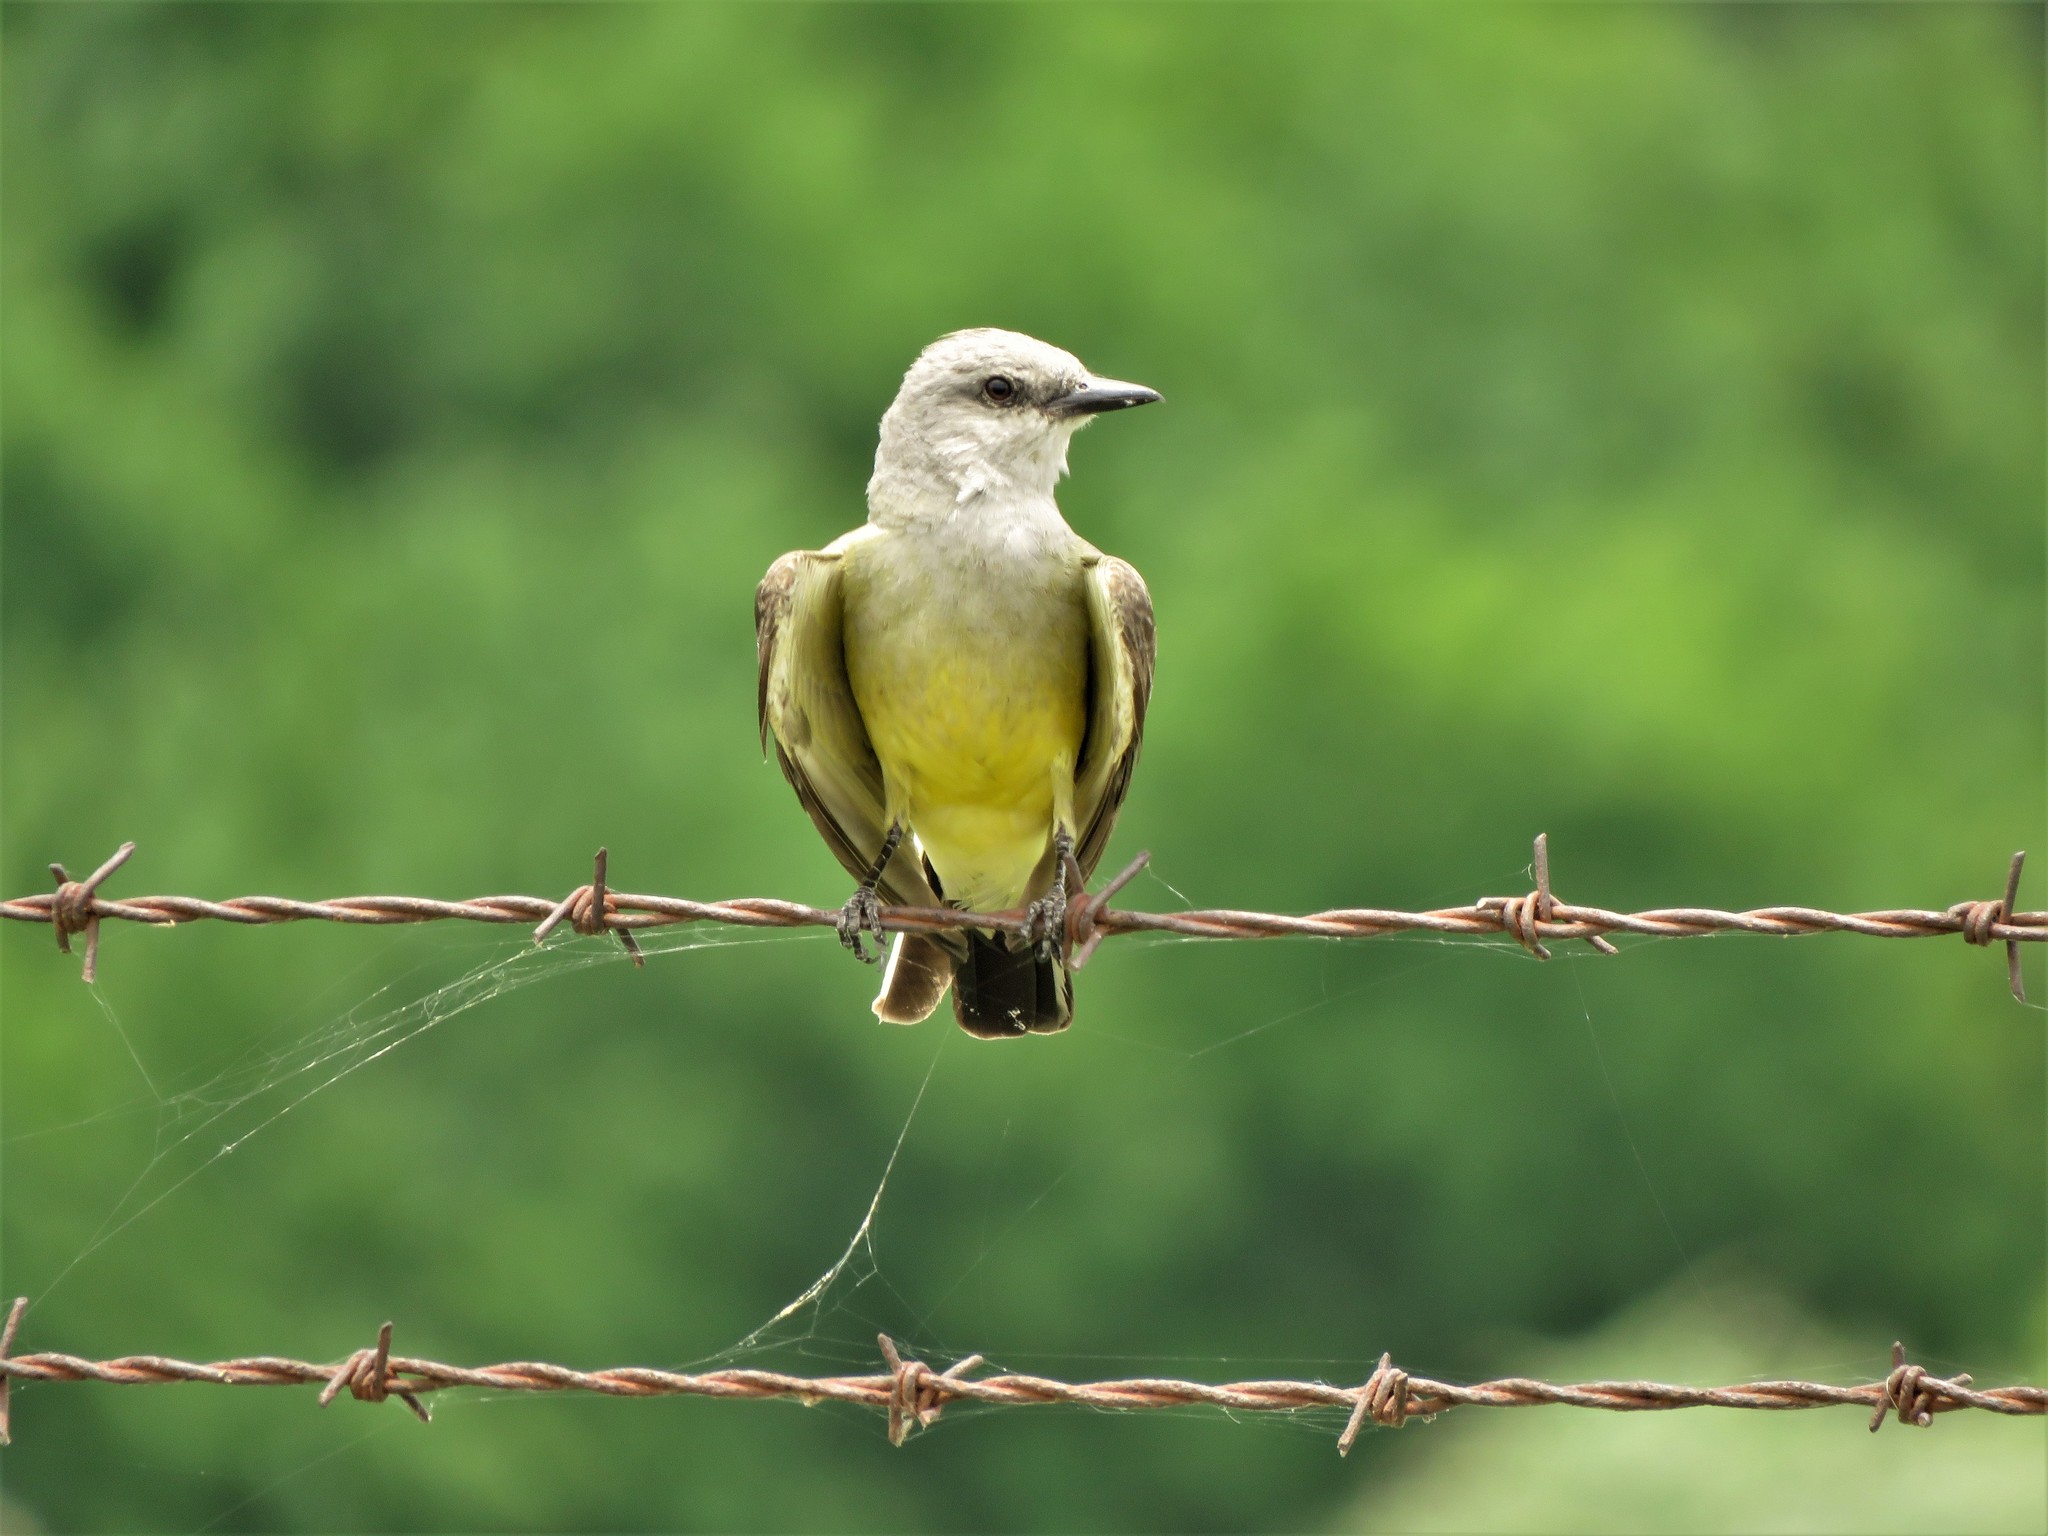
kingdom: Animalia
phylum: Chordata
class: Aves
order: Passeriformes
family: Tyrannidae
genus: Tyrannus
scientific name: Tyrannus verticalis
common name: Western kingbird
